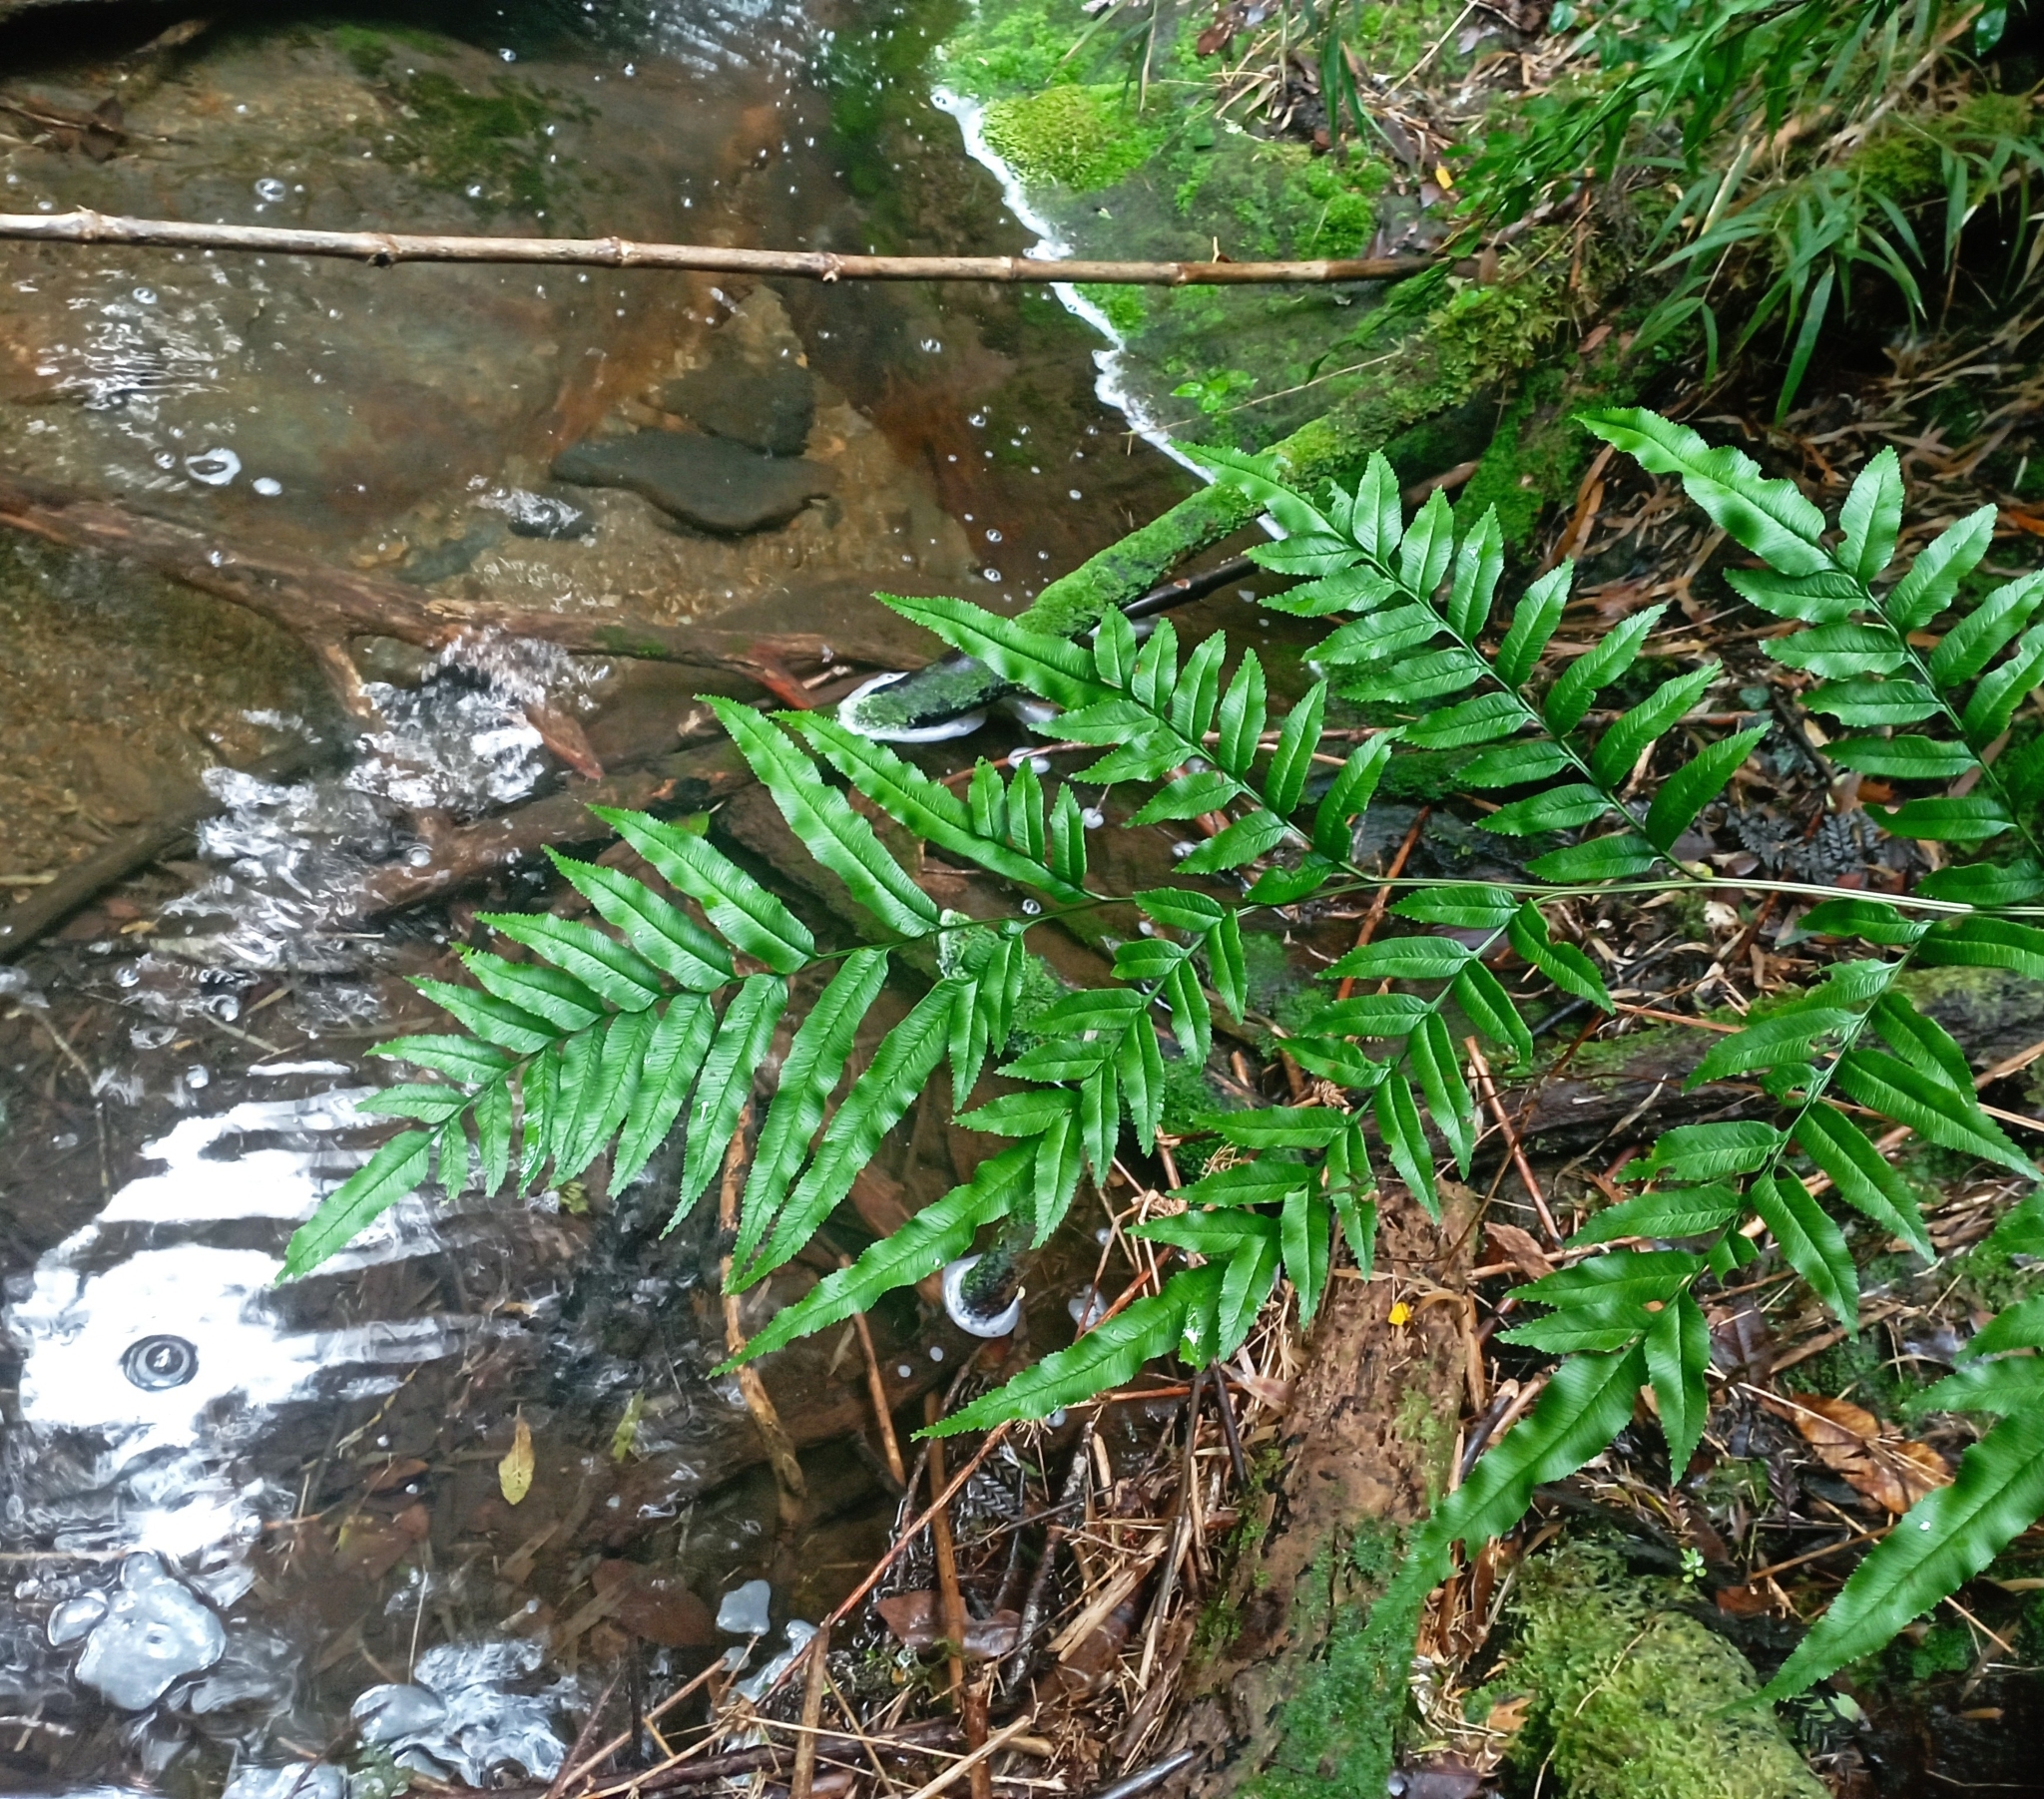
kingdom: Plantae
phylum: Tracheophyta
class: Polypodiopsida
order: Polypodiales
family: Pteridaceae
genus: Pteris
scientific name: Pteris semiadnata
